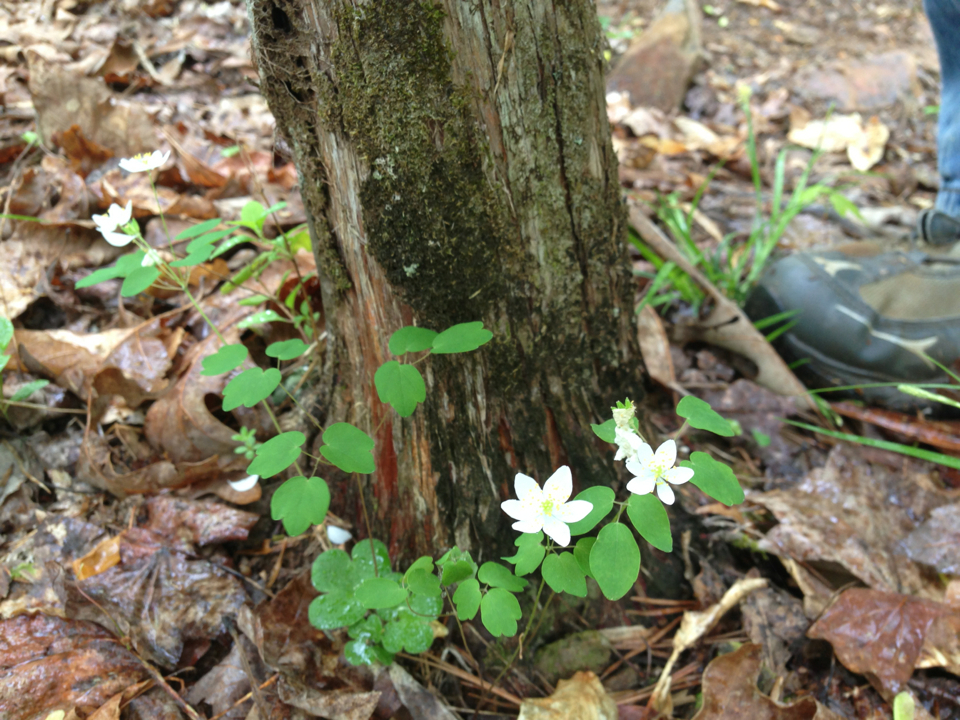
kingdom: Plantae
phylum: Tracheophyta
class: Magnoliopsida
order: Ranunculales
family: Ranunculaceae
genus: Thalictrum
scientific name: Thalictrum thalictroides
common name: Rue-anemone
